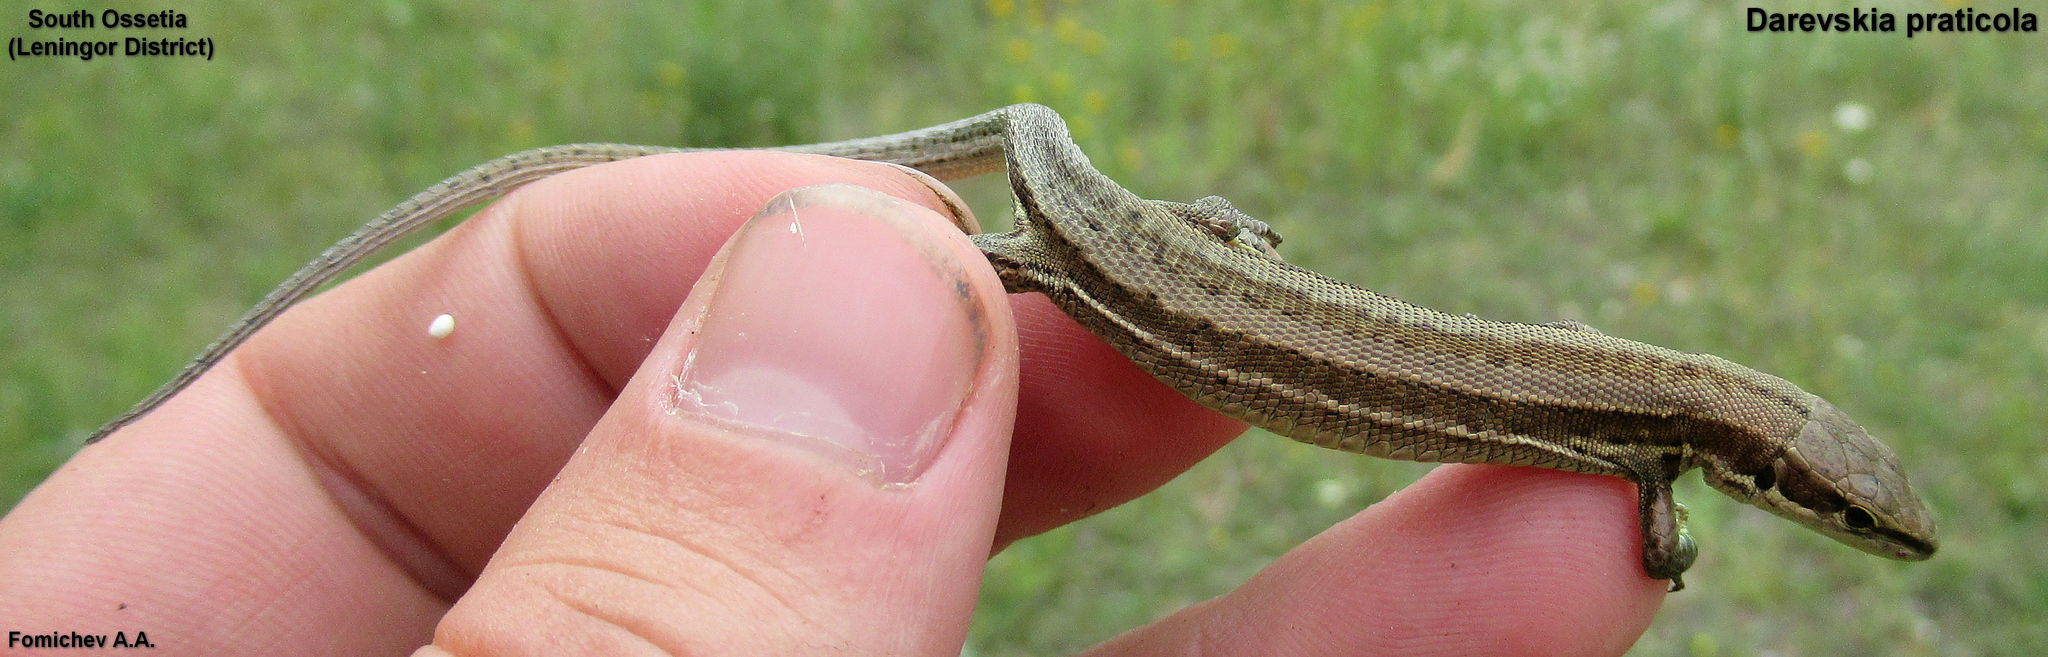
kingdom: Animalia
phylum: Chordata
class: Squamata
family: Lacertidae
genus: Darevskia
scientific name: Darevskia praticola
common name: Meadow lizard
